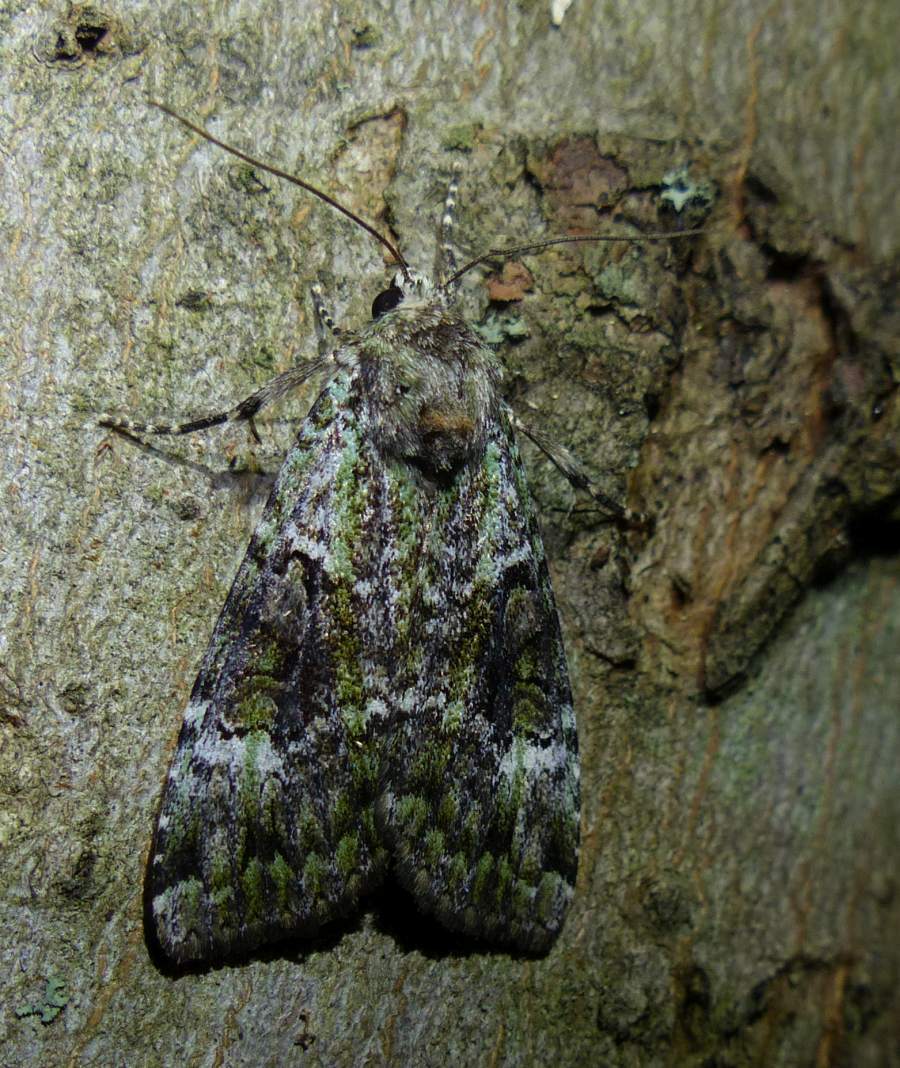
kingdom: Animalia
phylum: Arthropoda
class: Insecta
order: Lepidoptera
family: Noctuidae
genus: Anaplectoides
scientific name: Anaplectoides prasina
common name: Green arches
